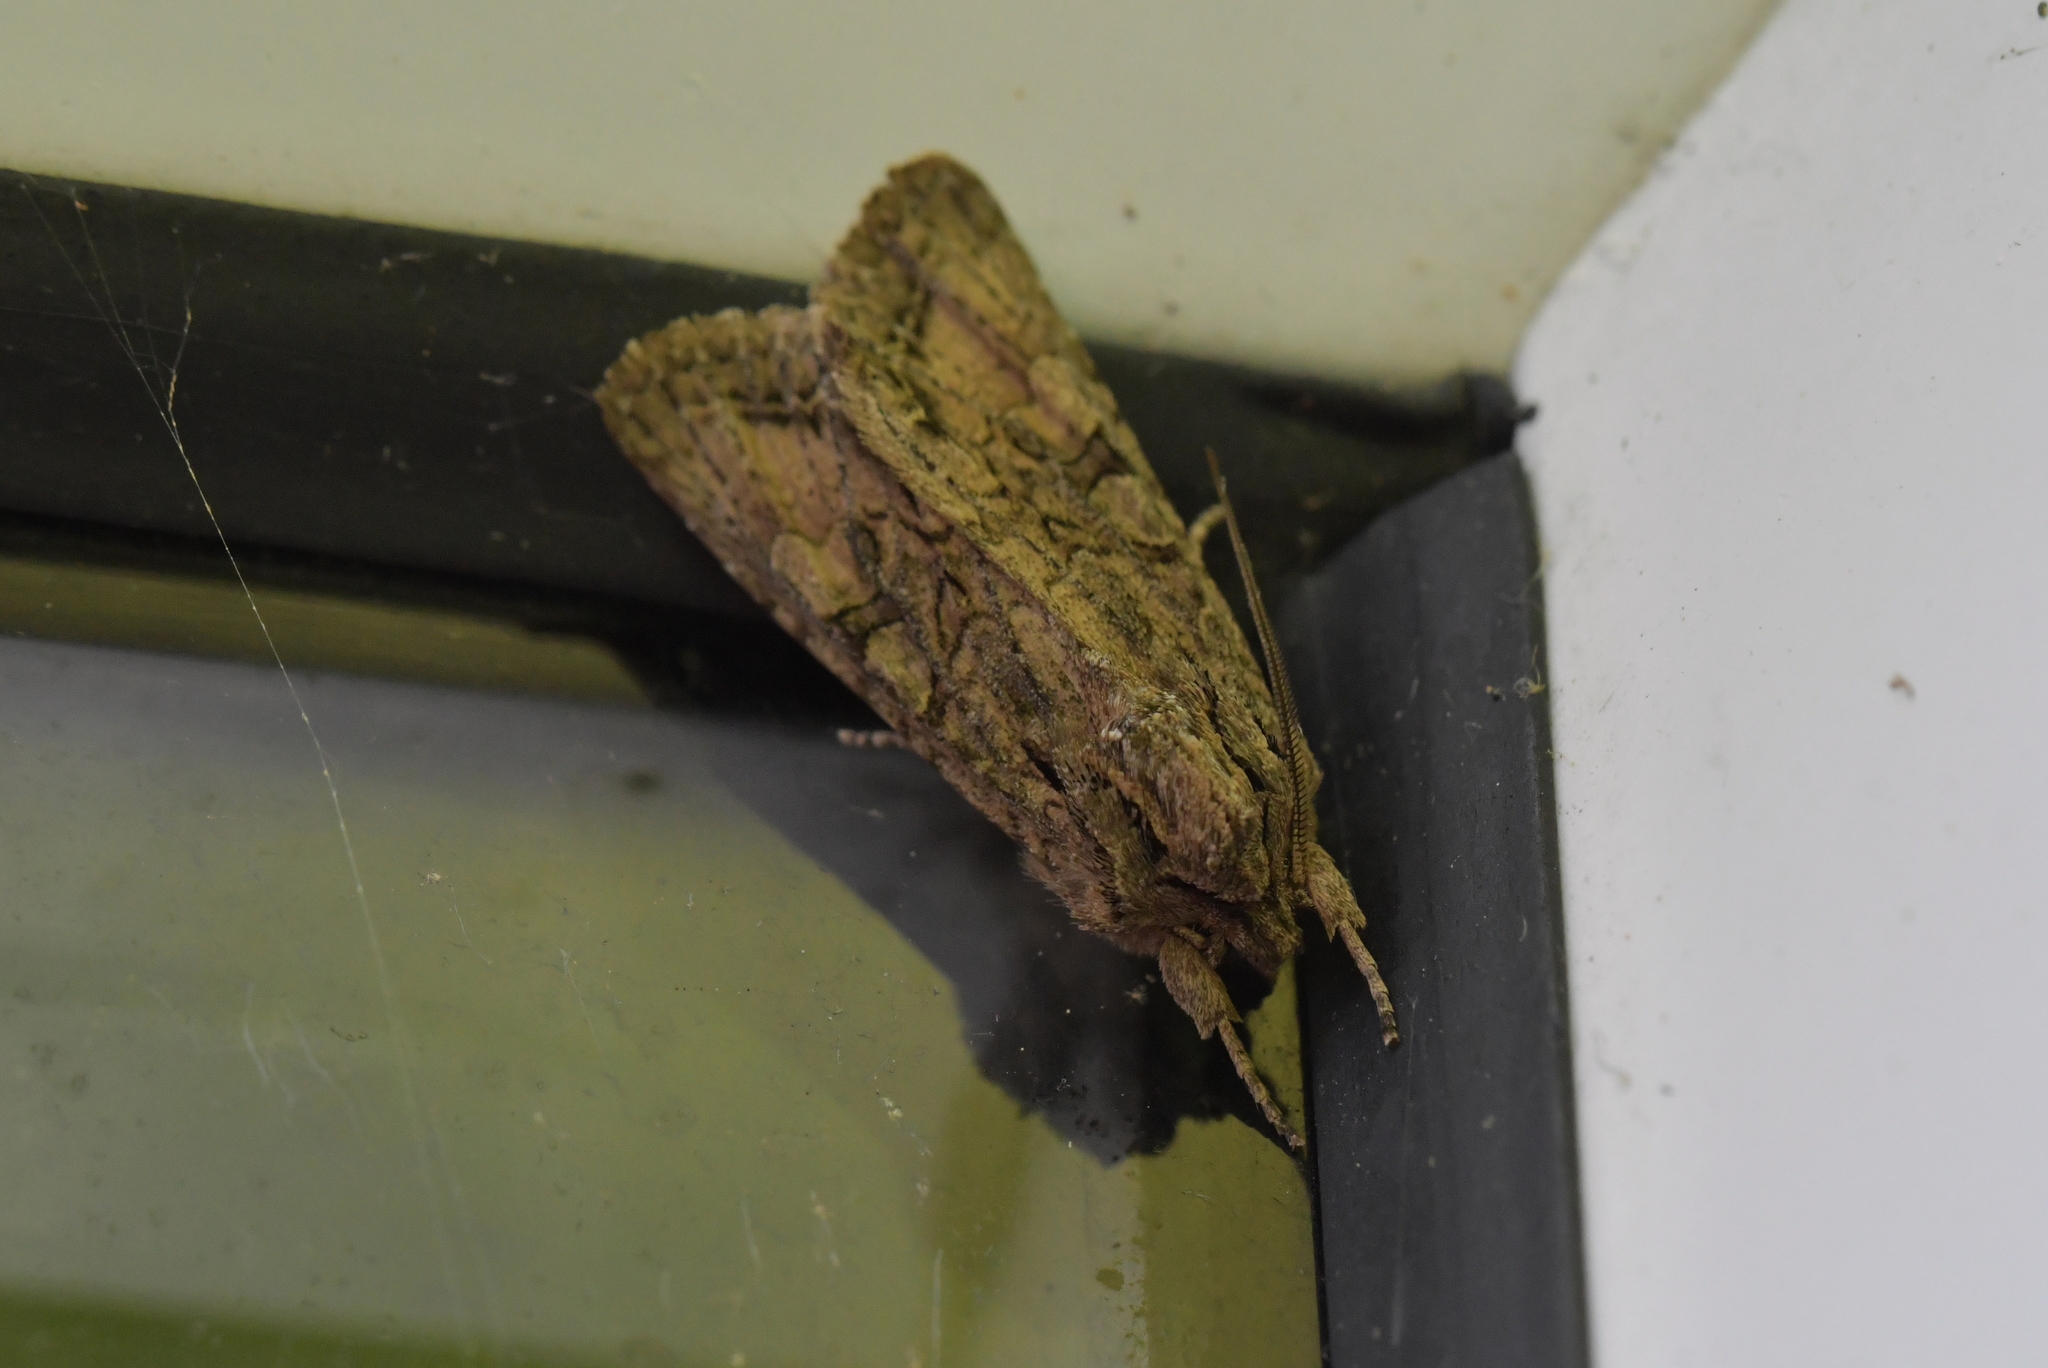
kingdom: Animalia
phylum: Arthropoda
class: Insecta
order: Lepidoptera
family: Noctuidae
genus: Ichneutica
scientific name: Ichneutica mutans
